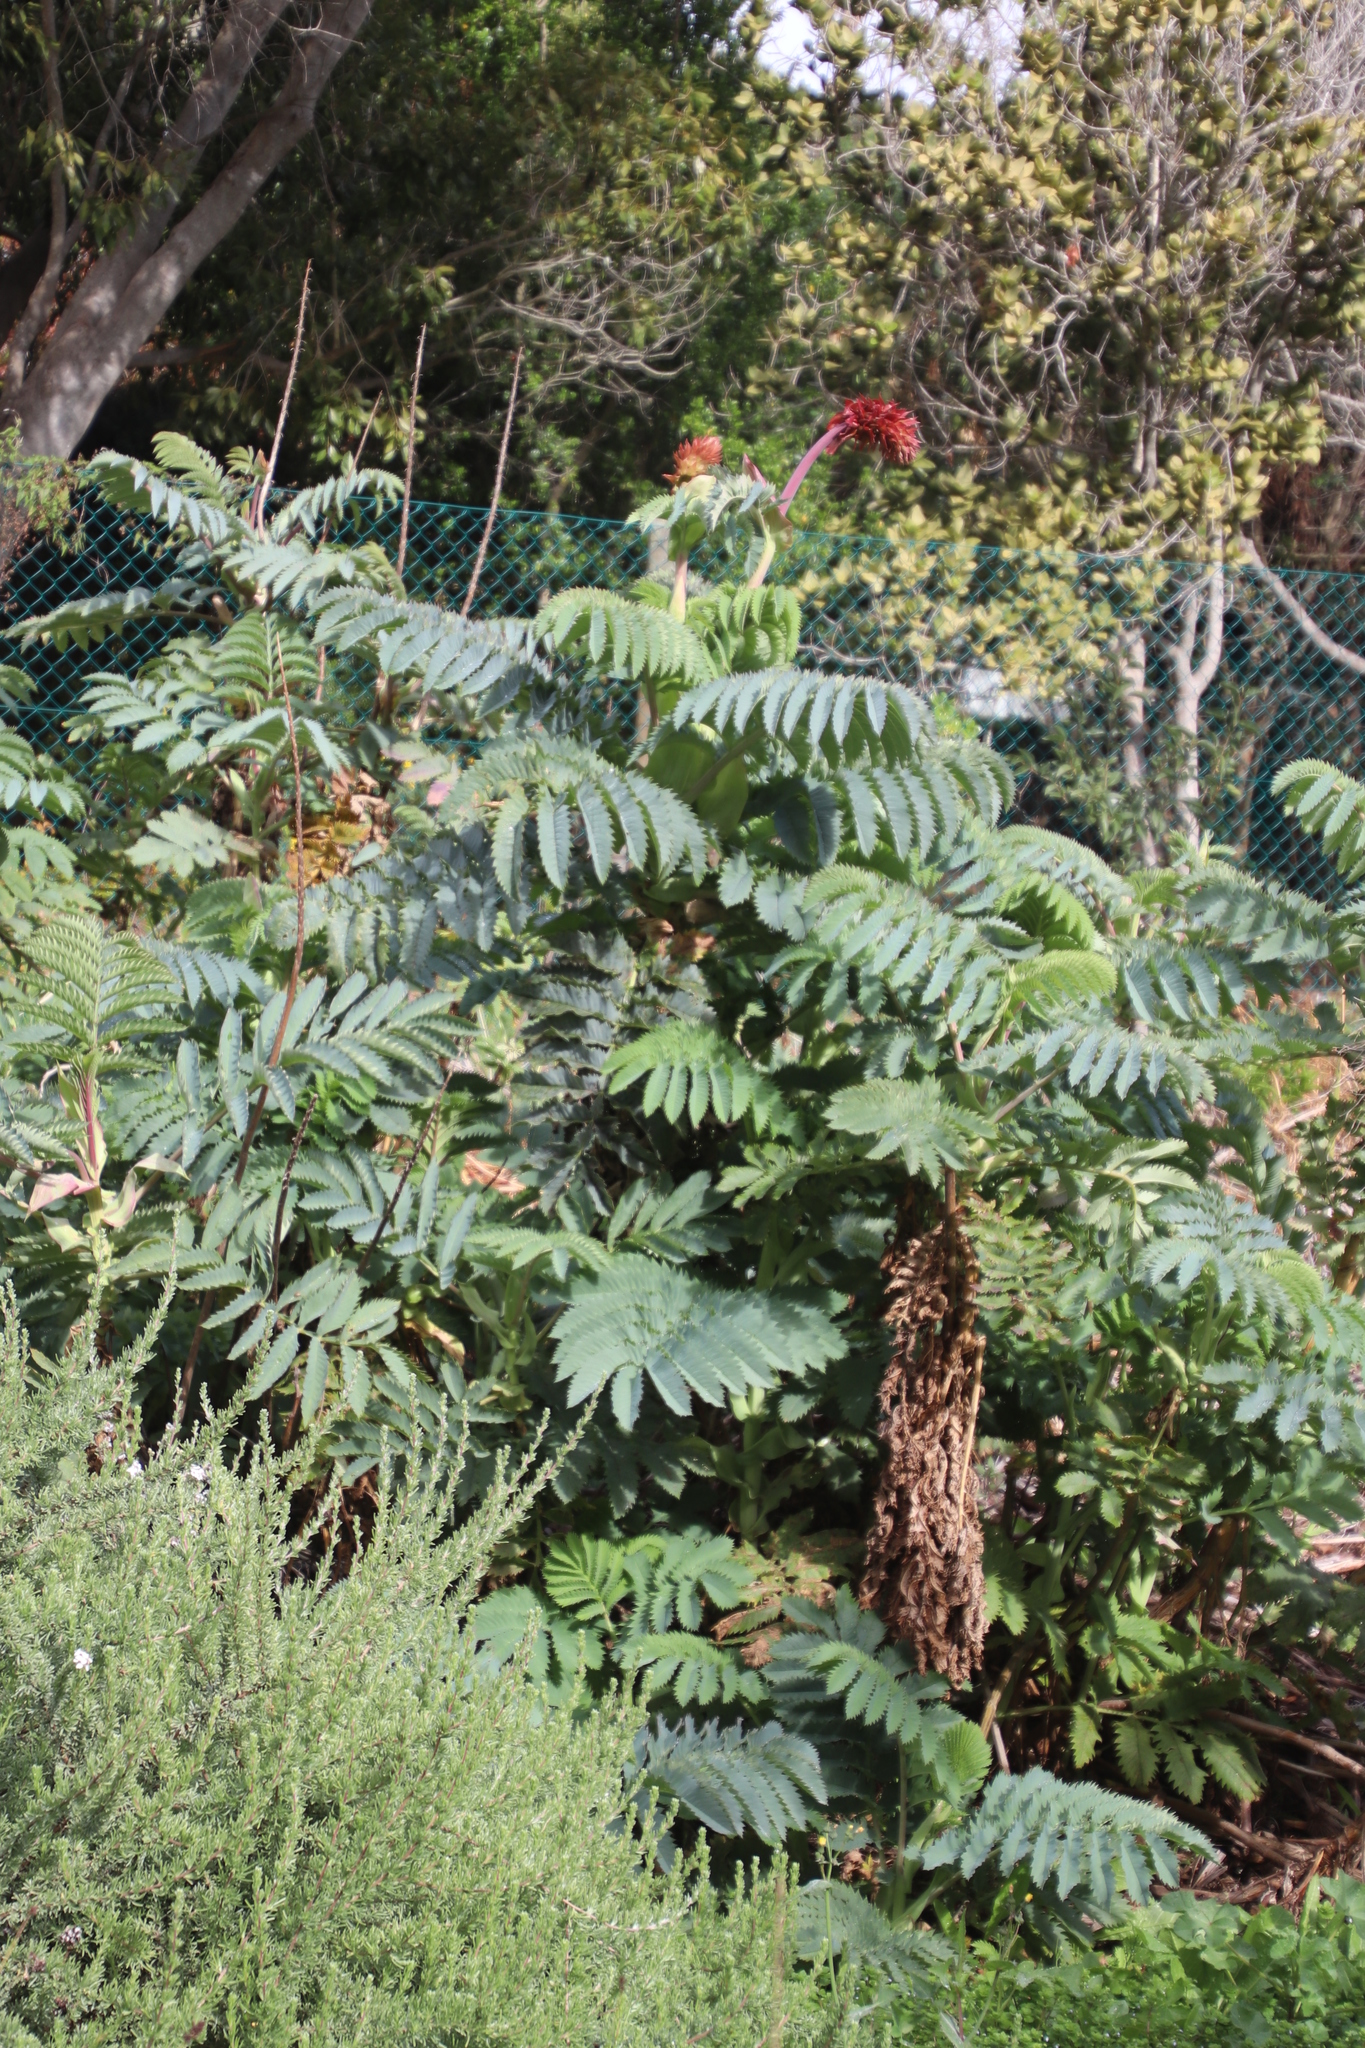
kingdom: Plantae
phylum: Tracheophyta
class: Magnoliopsida
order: Geraniales
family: Melianthaceae
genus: Melianthus
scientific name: Melianthus major
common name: Honey-flower
